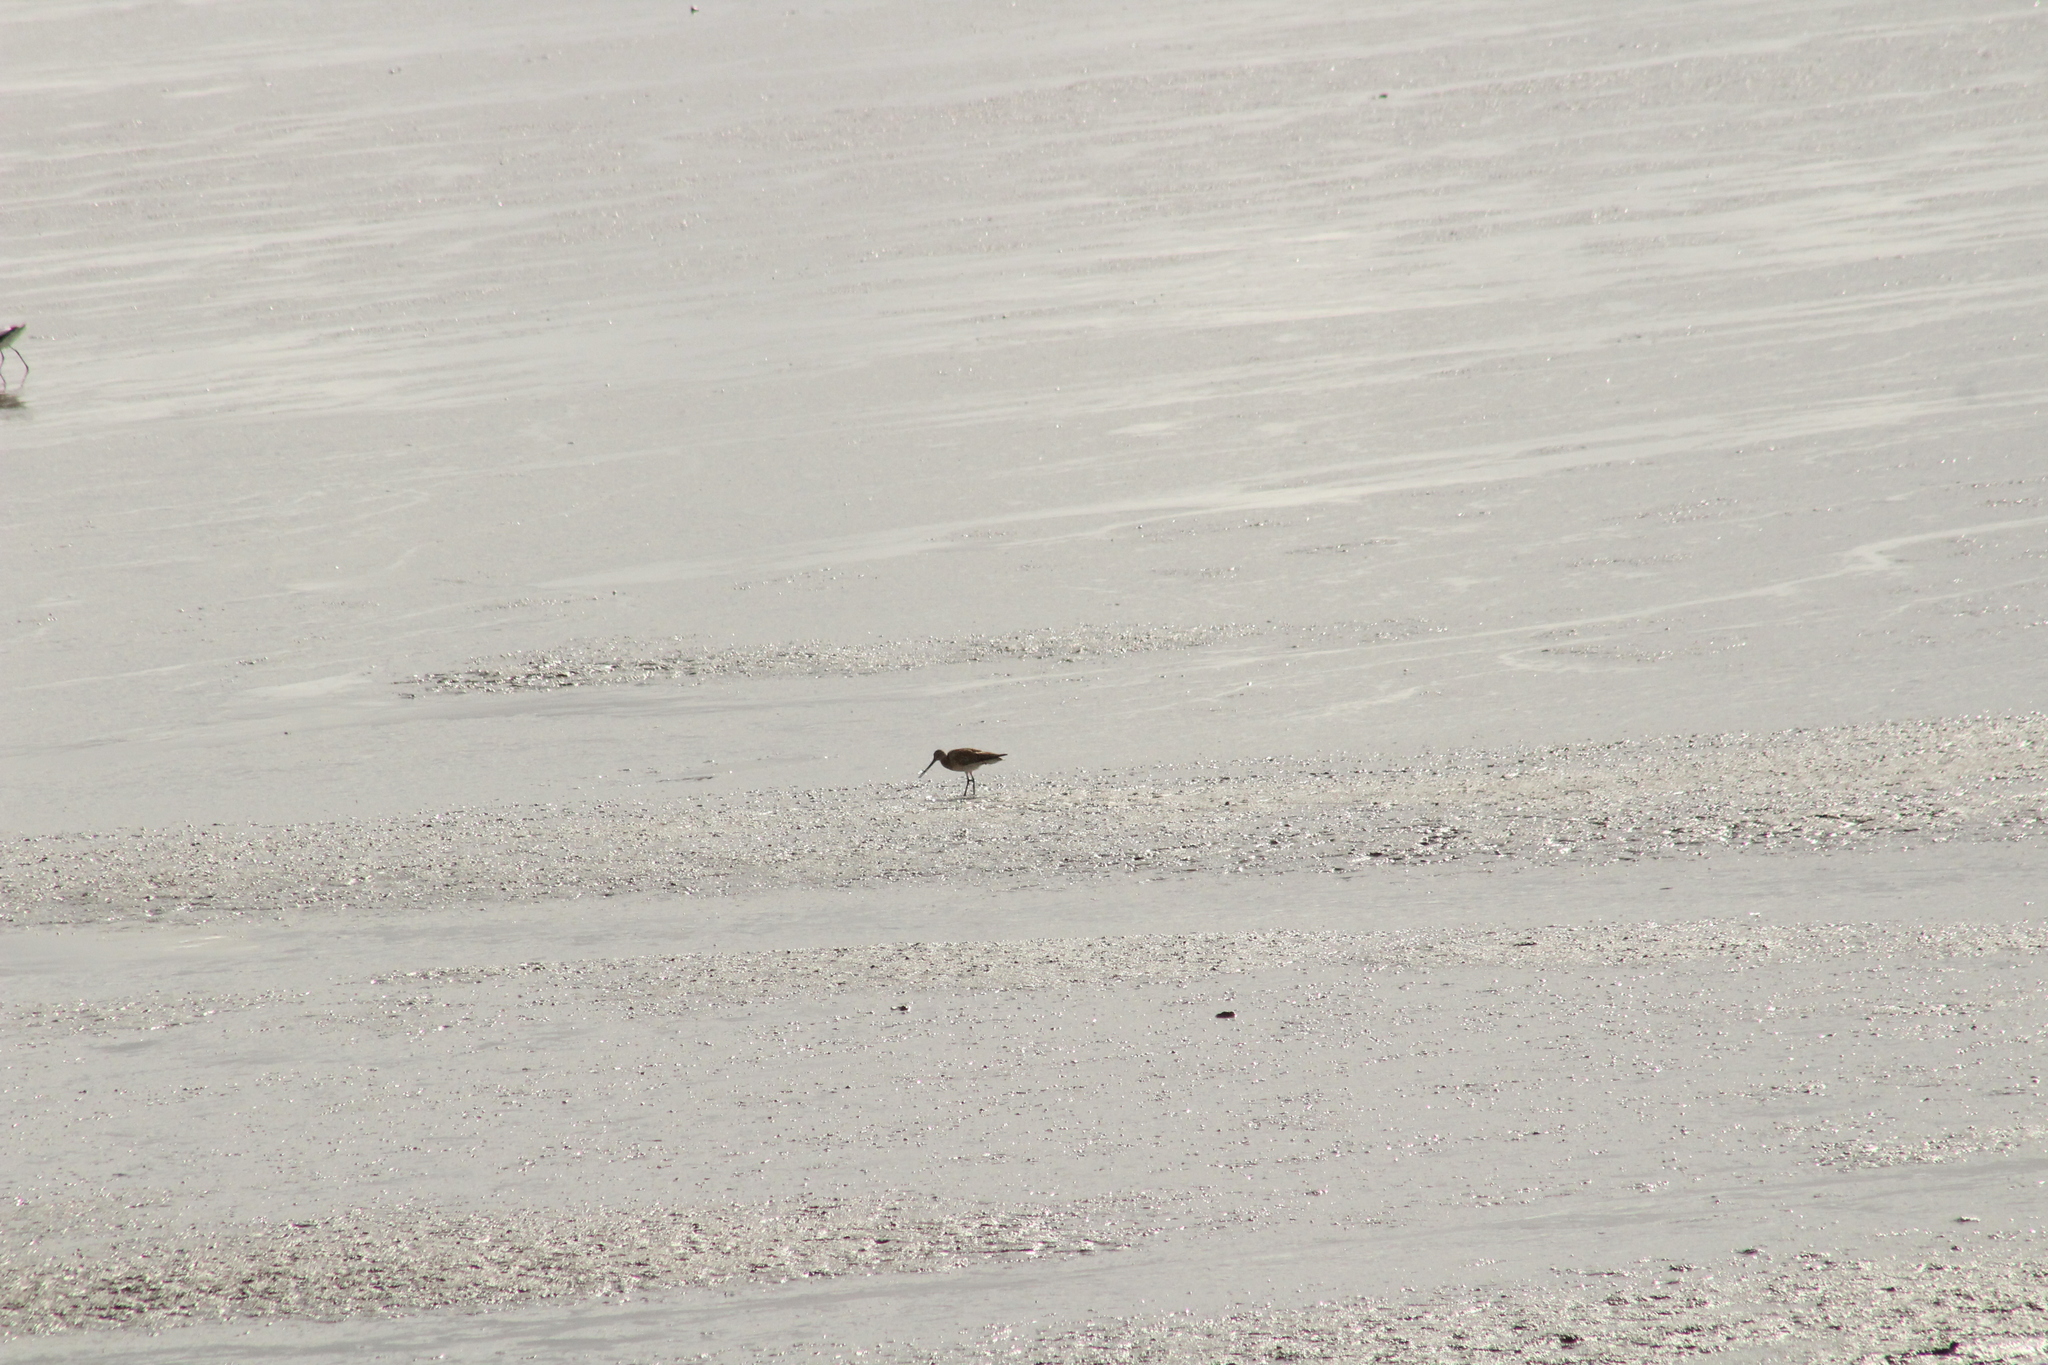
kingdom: Animalia
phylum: Chordata
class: Aves
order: Charadriiformes
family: Scolopacidae
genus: Limosa
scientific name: Limosa limosa
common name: Black-tailed godwit
